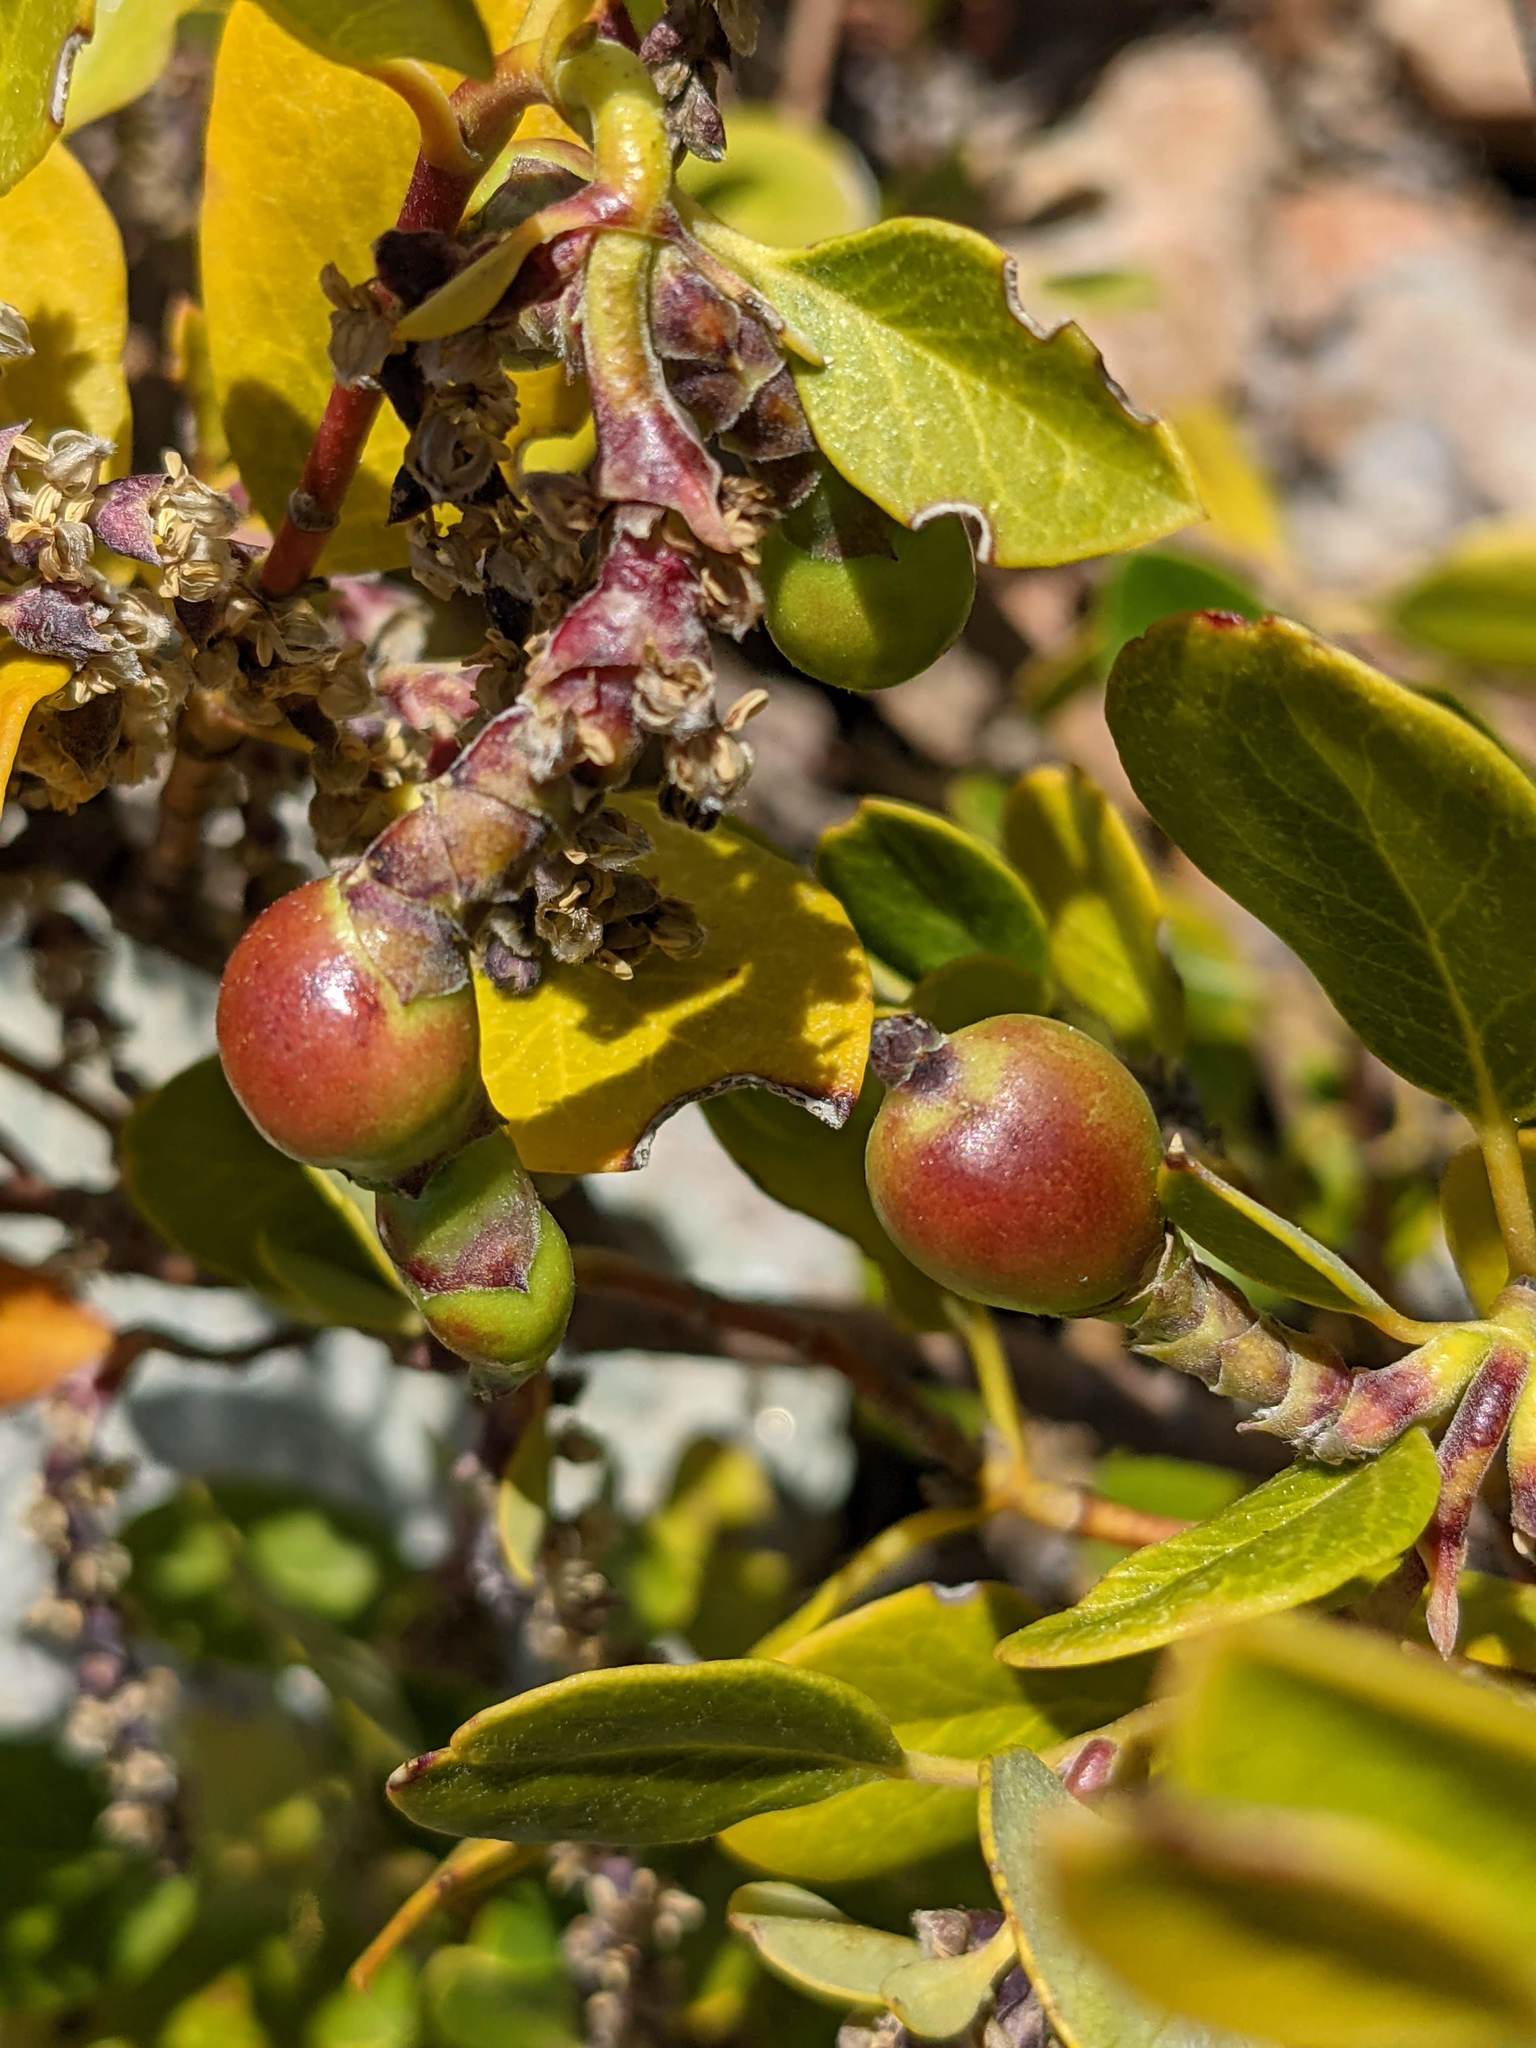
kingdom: Animalia
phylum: Arthropoda
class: Insecta
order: Diptera
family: Cecidomyiidae
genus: Asphondylia
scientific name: Asphondylia garryae
